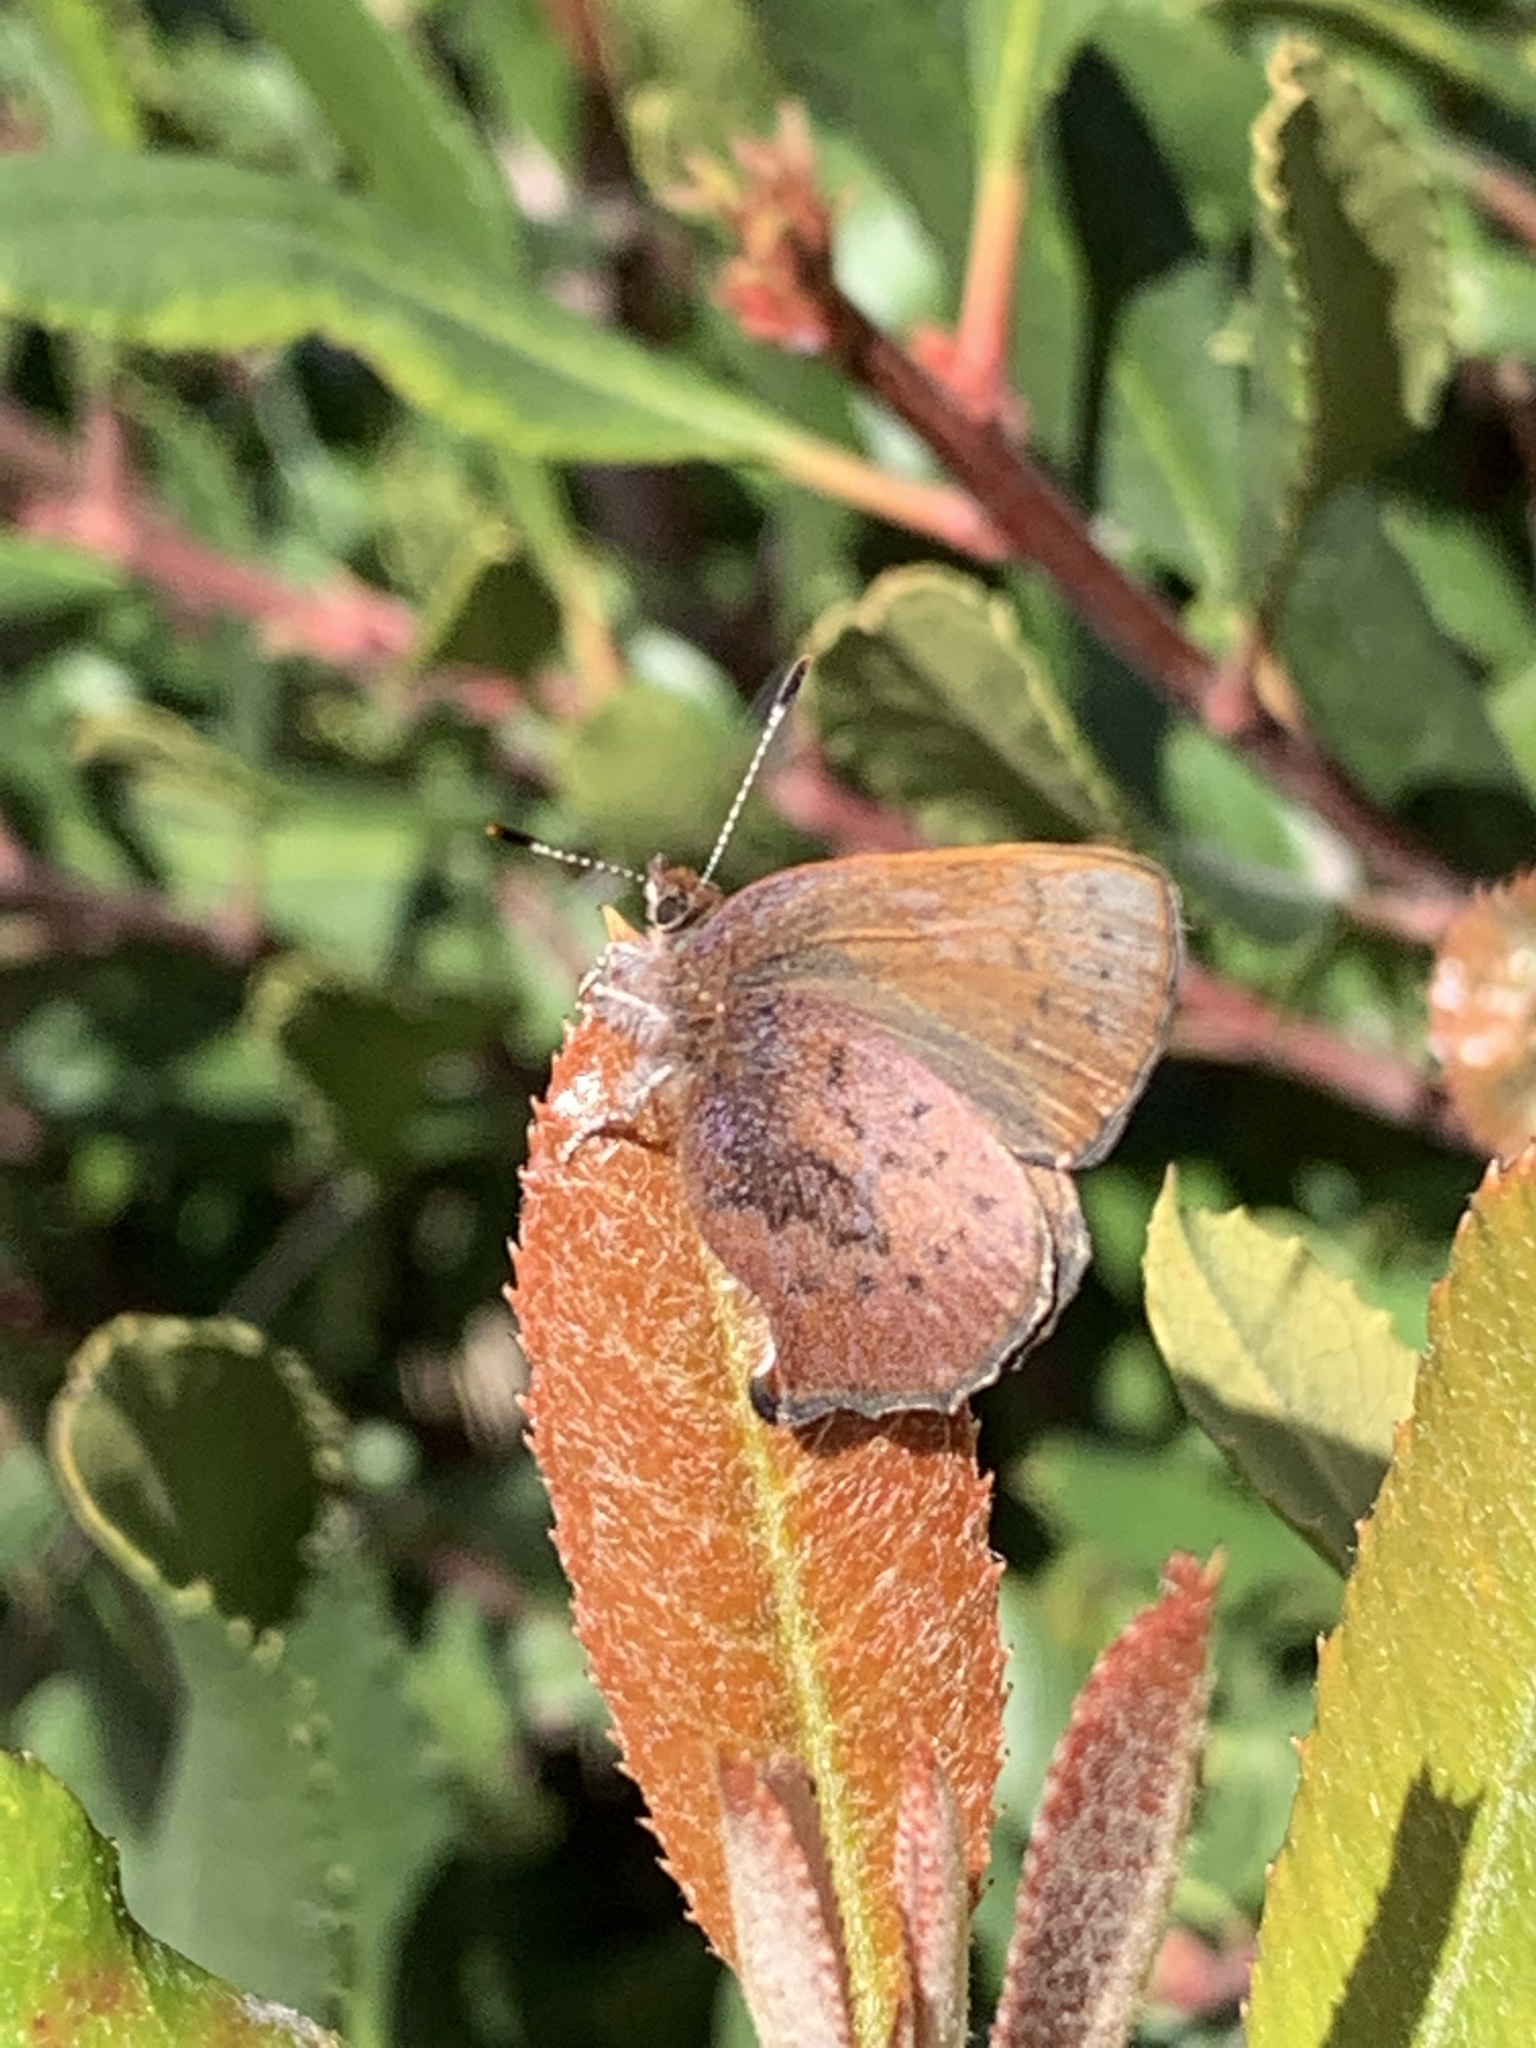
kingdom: Animalia
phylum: Arthropoda
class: Insecta
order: Lepidoptera
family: Lycaenidae
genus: Incisalia
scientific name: Incisalia irioides
